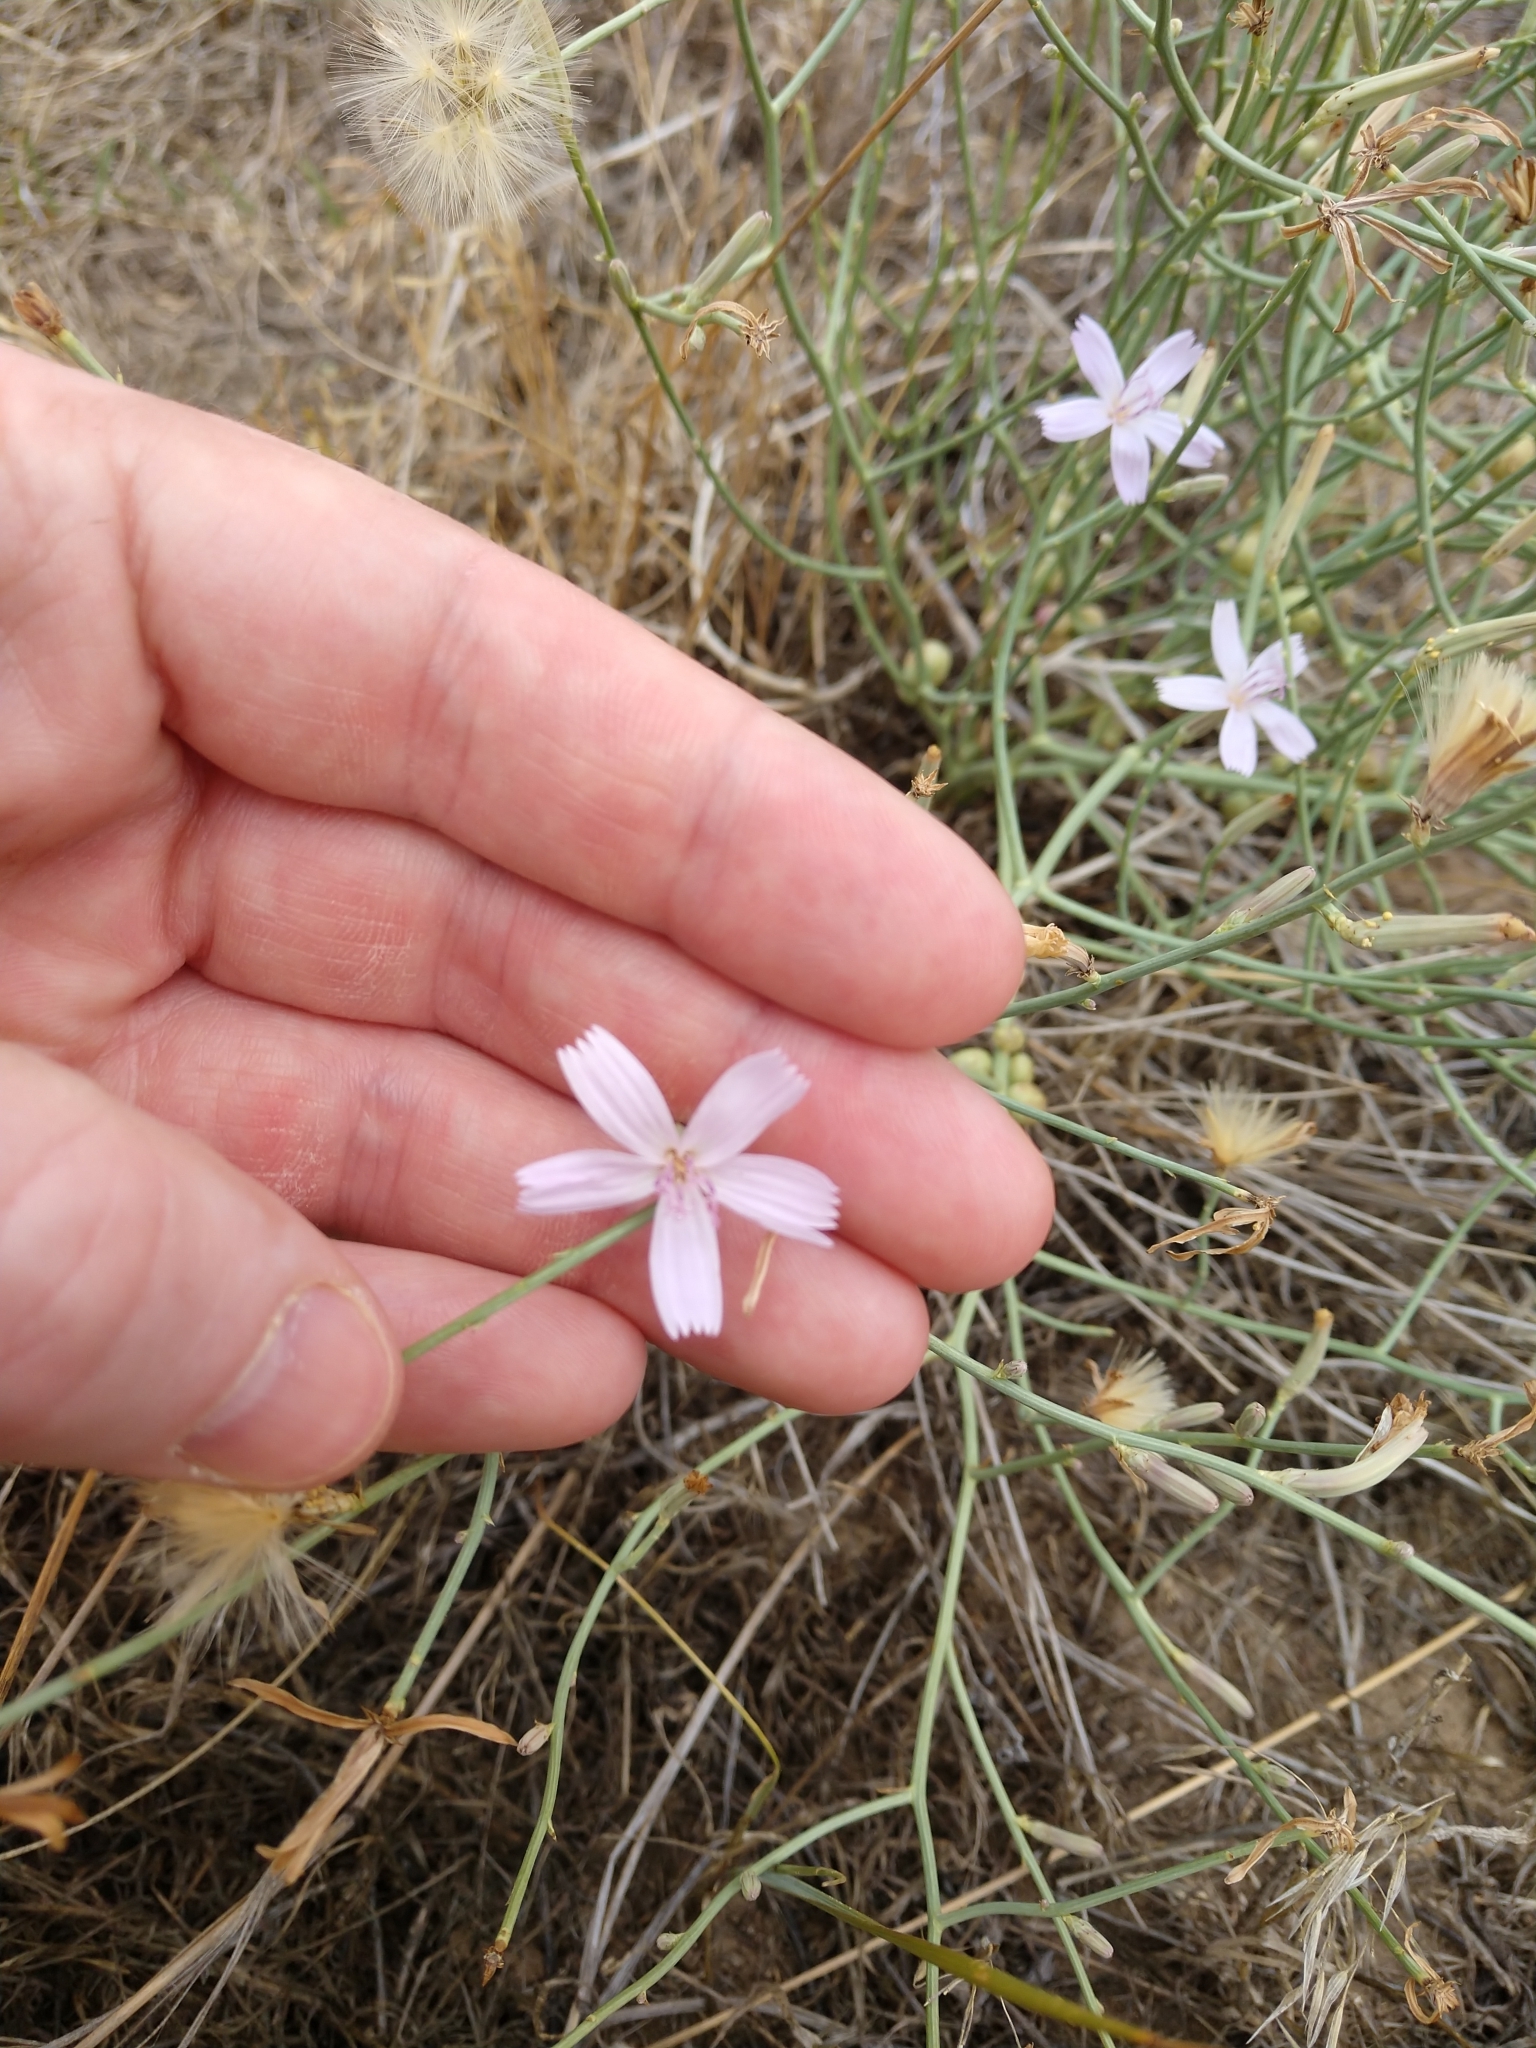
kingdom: Plantae
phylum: Tracheophyta
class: Magnoliopsida
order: Asterales
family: Asteraceae
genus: Lygodesmia
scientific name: Lygodesmia juncea
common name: Common skeletonweed
